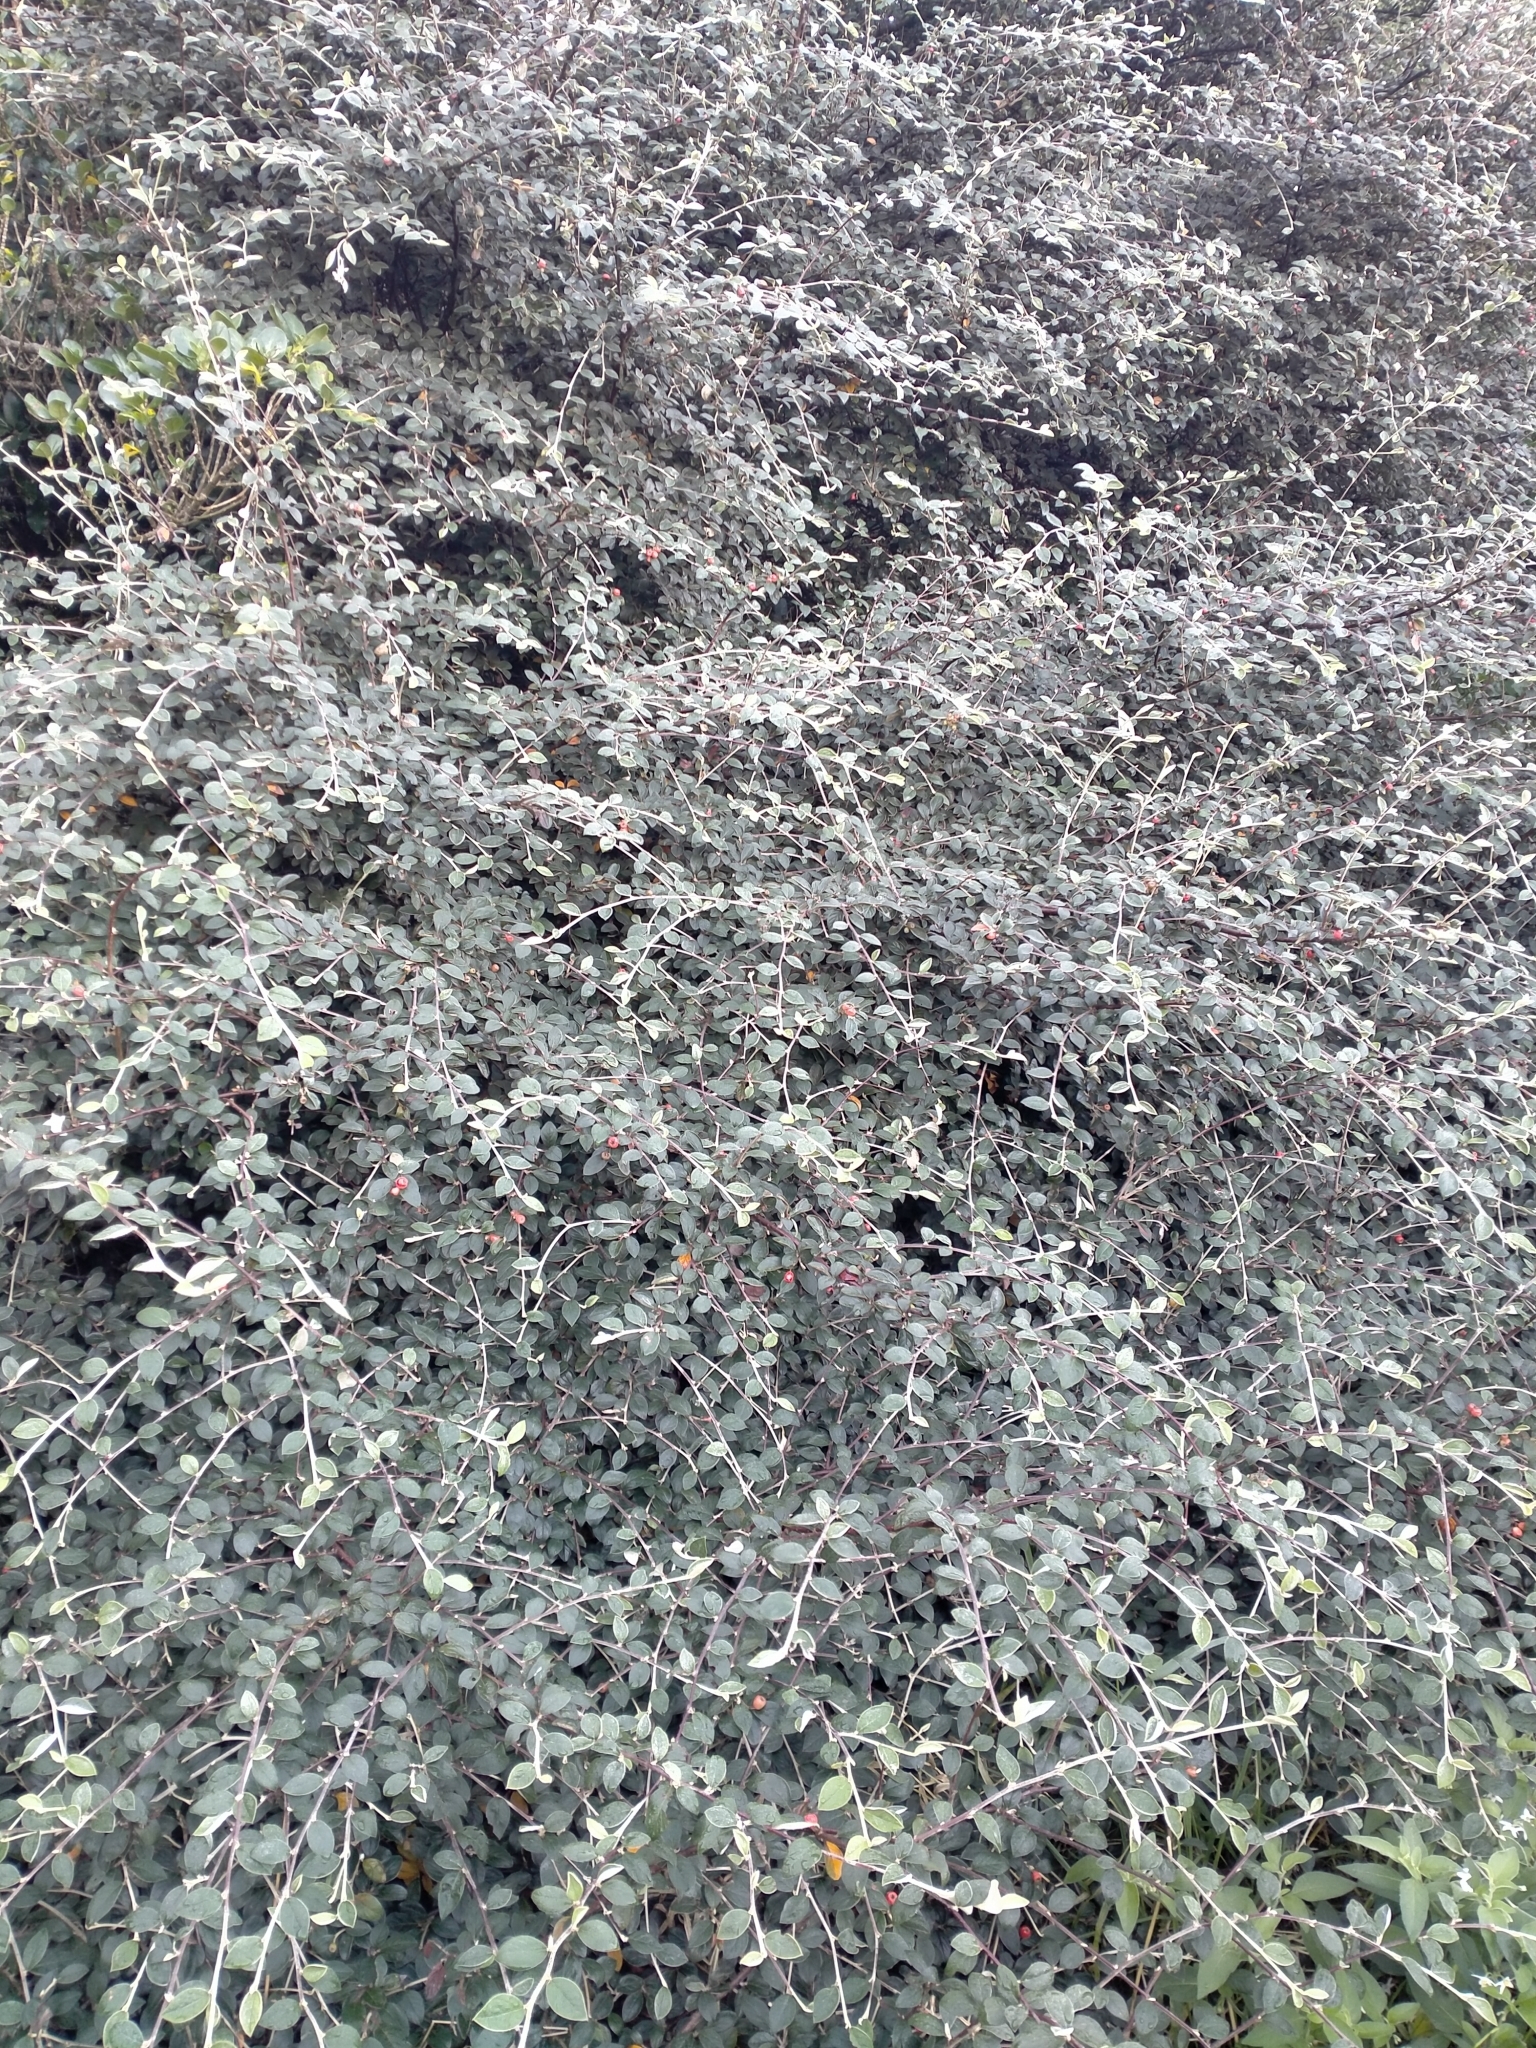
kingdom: Plantae
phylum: Tracheophyta
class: Magnoliopsida
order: Rosales
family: Rosaceae
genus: Cotoneaster
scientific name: Cotoneaster franchetii
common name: Franchet's cotoneaster
